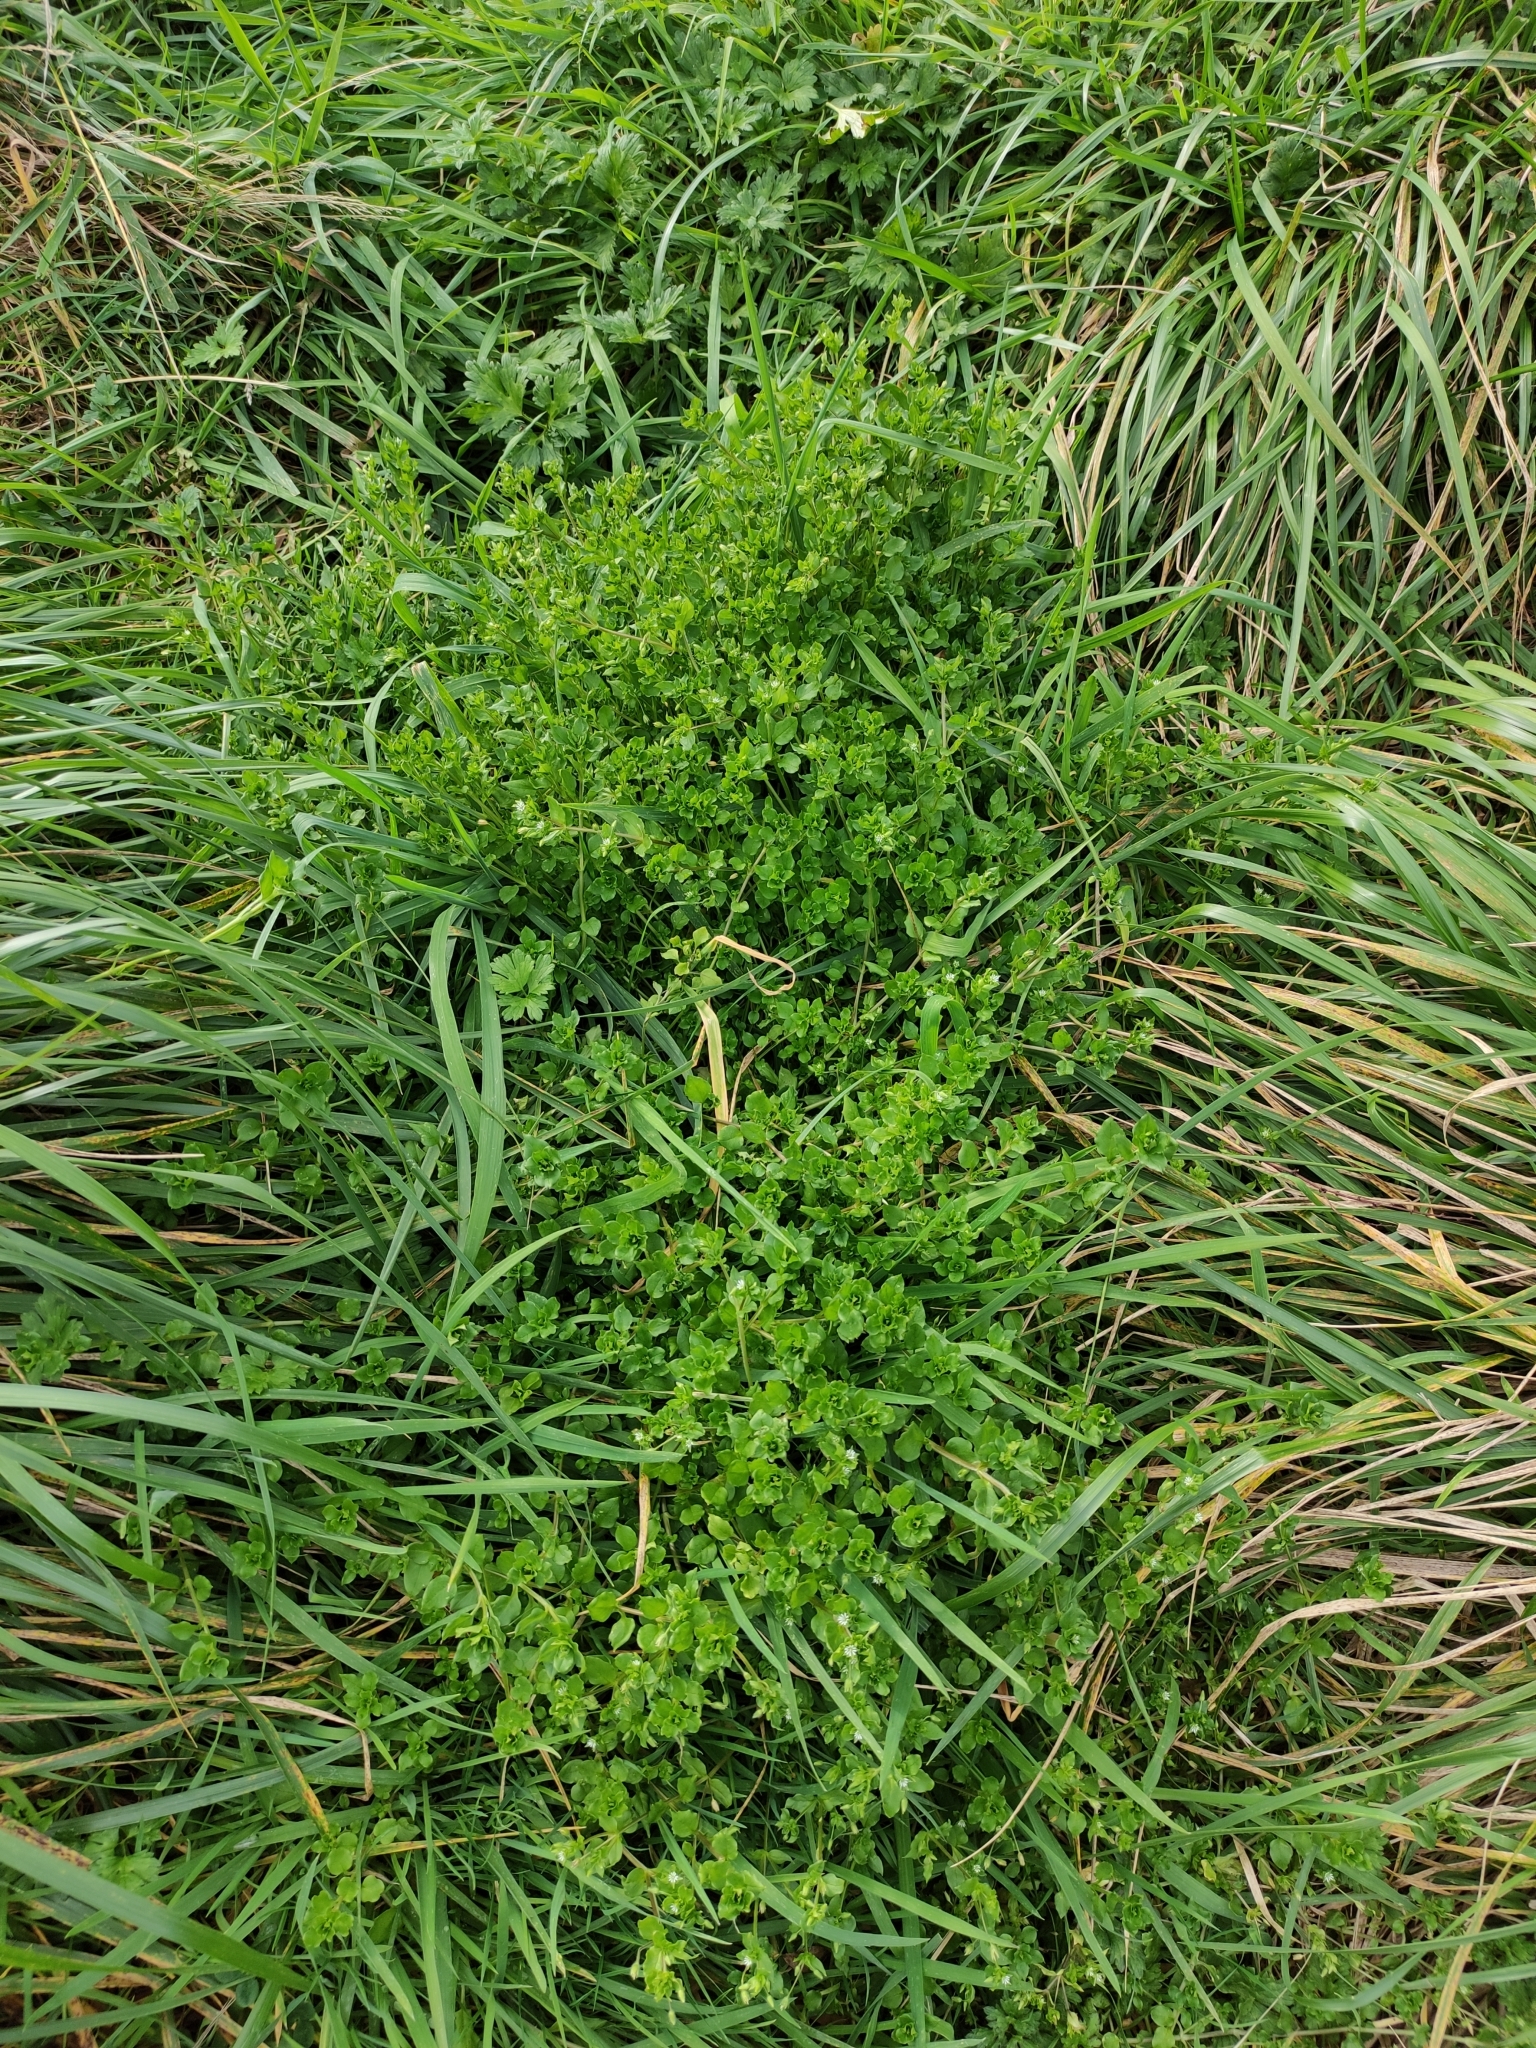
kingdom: Plantae
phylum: Tracheophyta
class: Magnoliopsida
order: Caryophyllales
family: Caryophyllaceae
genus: Stellaria
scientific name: Stellaria media
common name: Common chickweed
